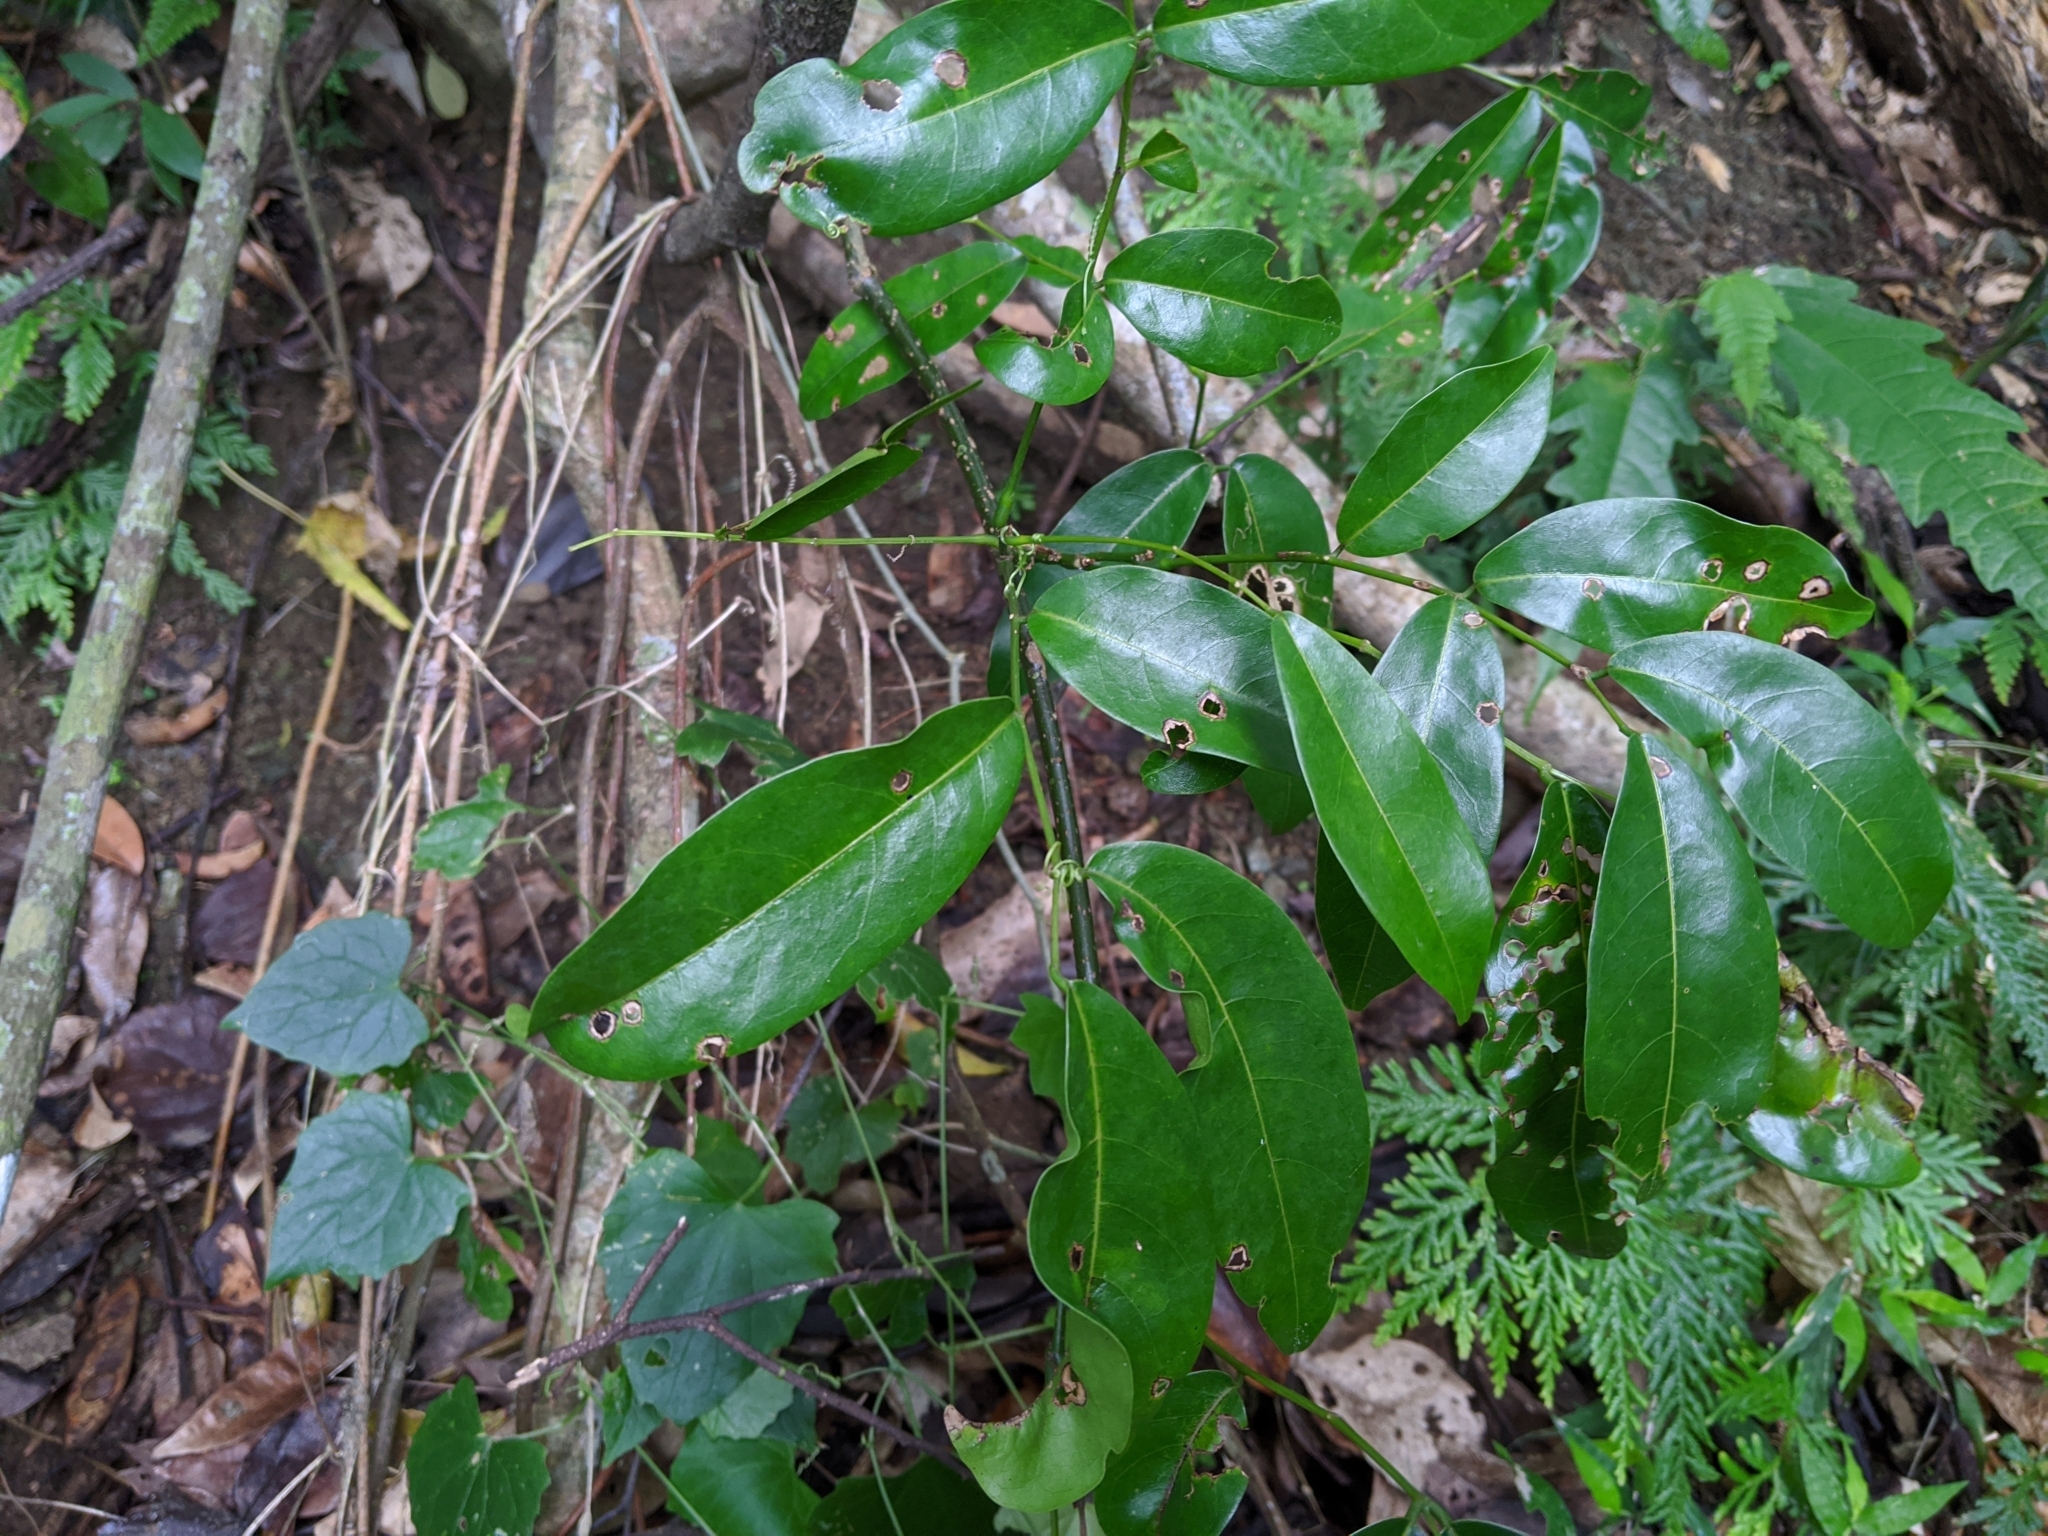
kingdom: Plantae
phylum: Tracheophyta
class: Magnoliopsida
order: Fabales
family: Fabaceae
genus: Wisteriopsis
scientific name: Wisteriopsis reticulata
